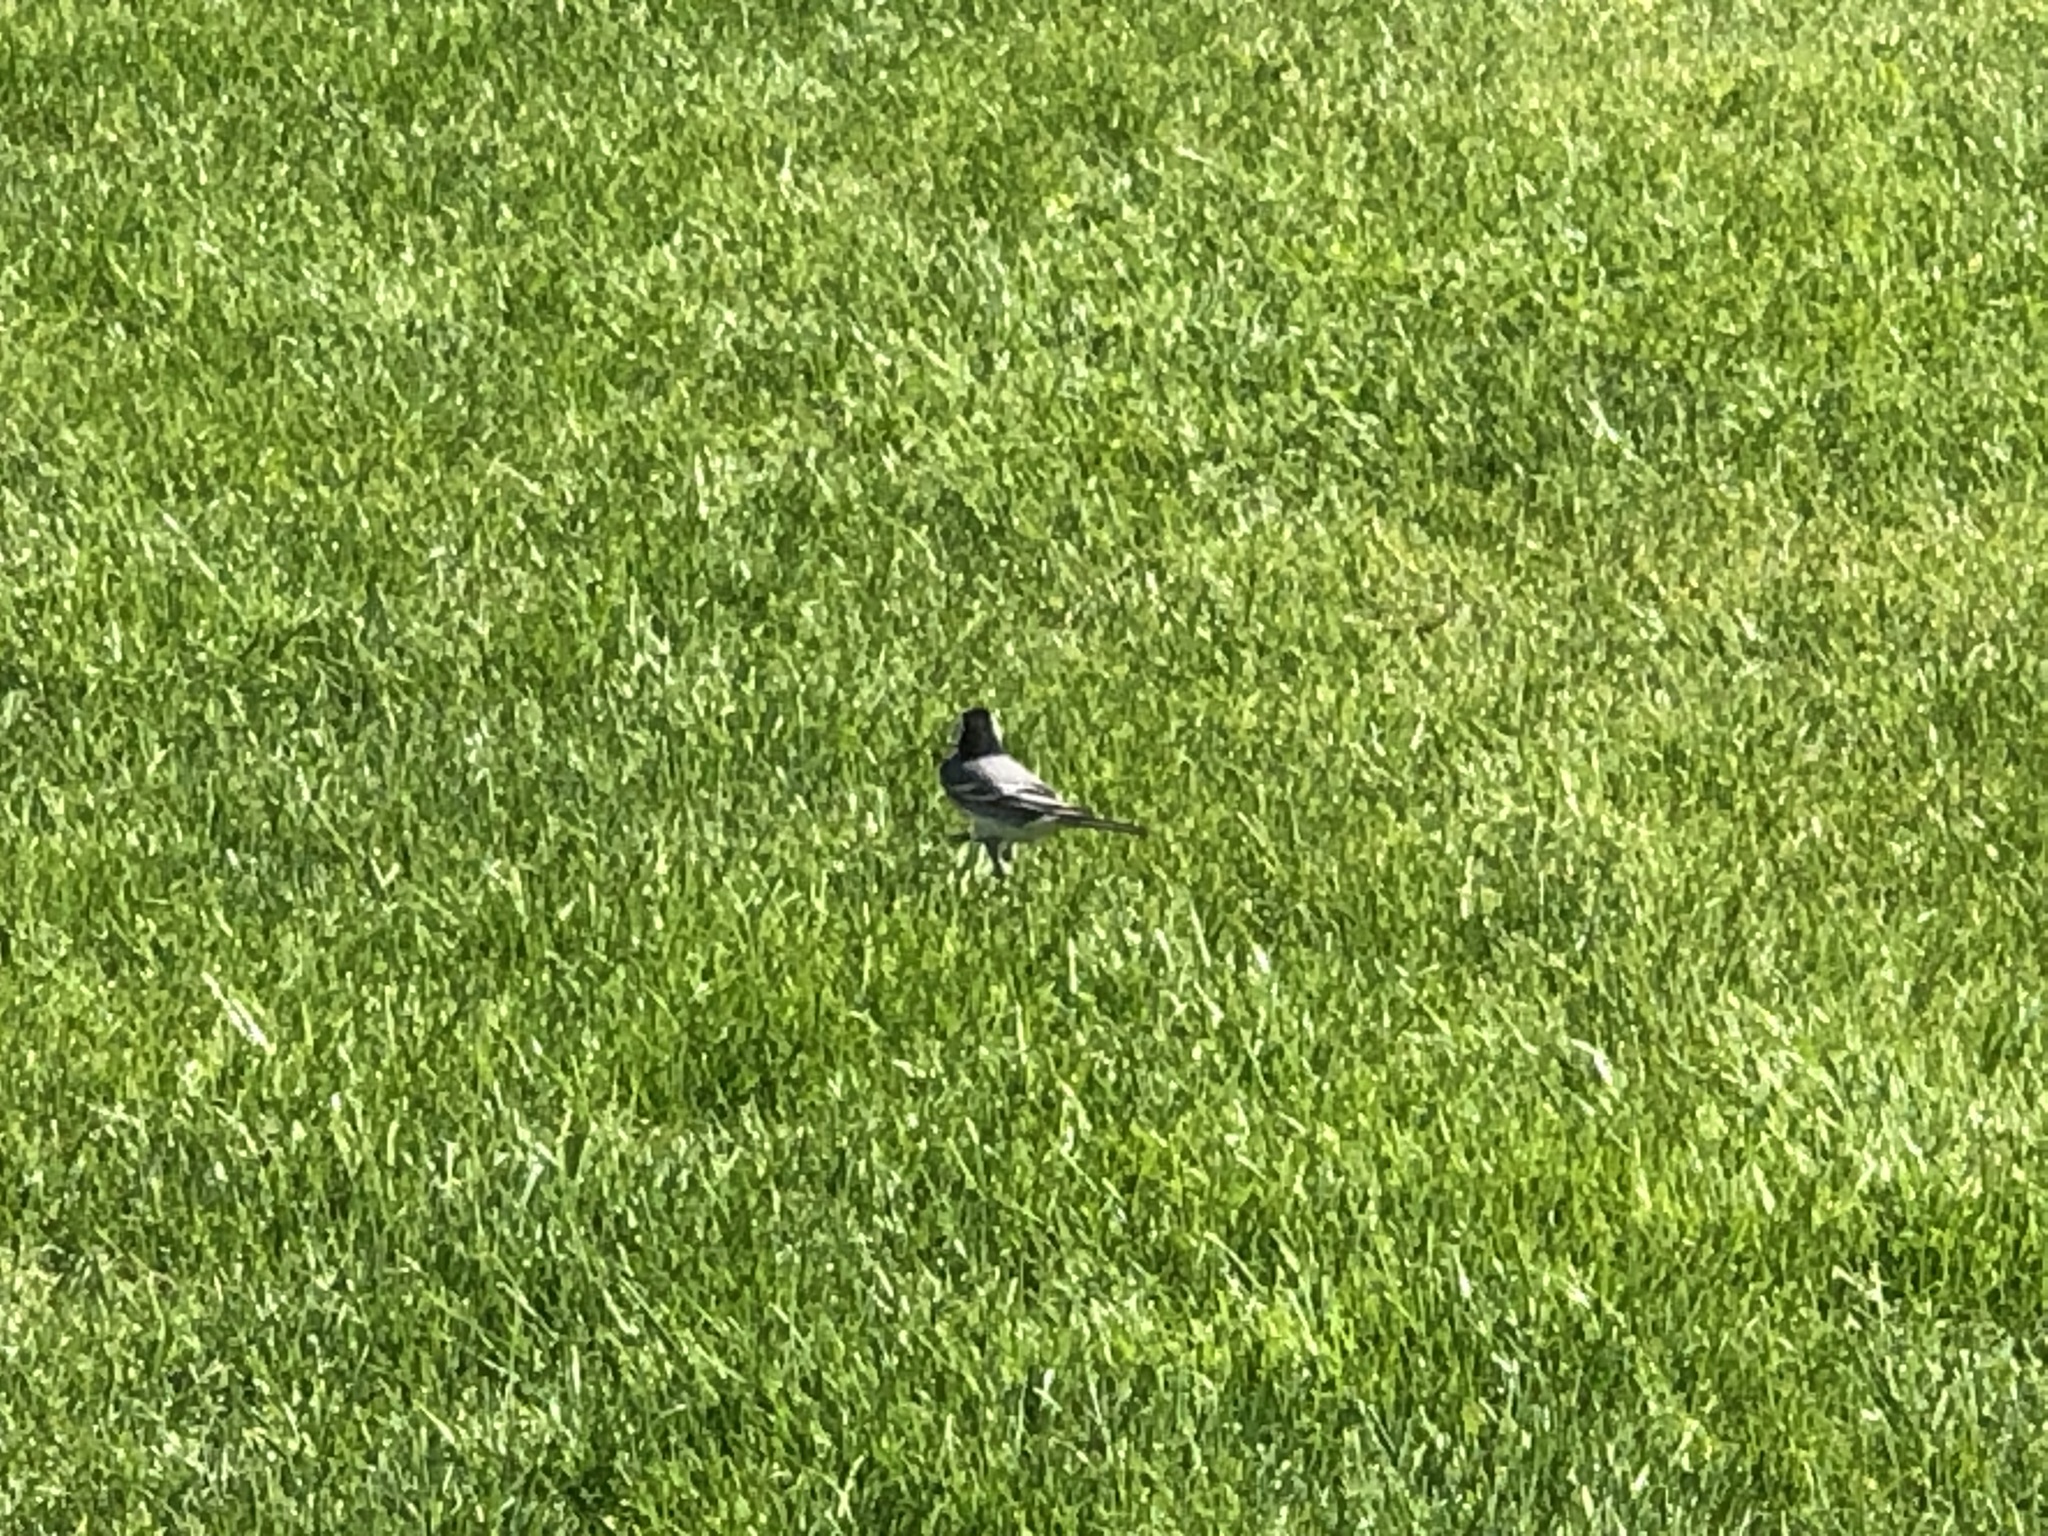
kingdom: Animalia
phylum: Chordata
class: Aves
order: Passeriformes
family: Motacillidae
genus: Motacilla
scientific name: Motacilla alba
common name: White wagtail
